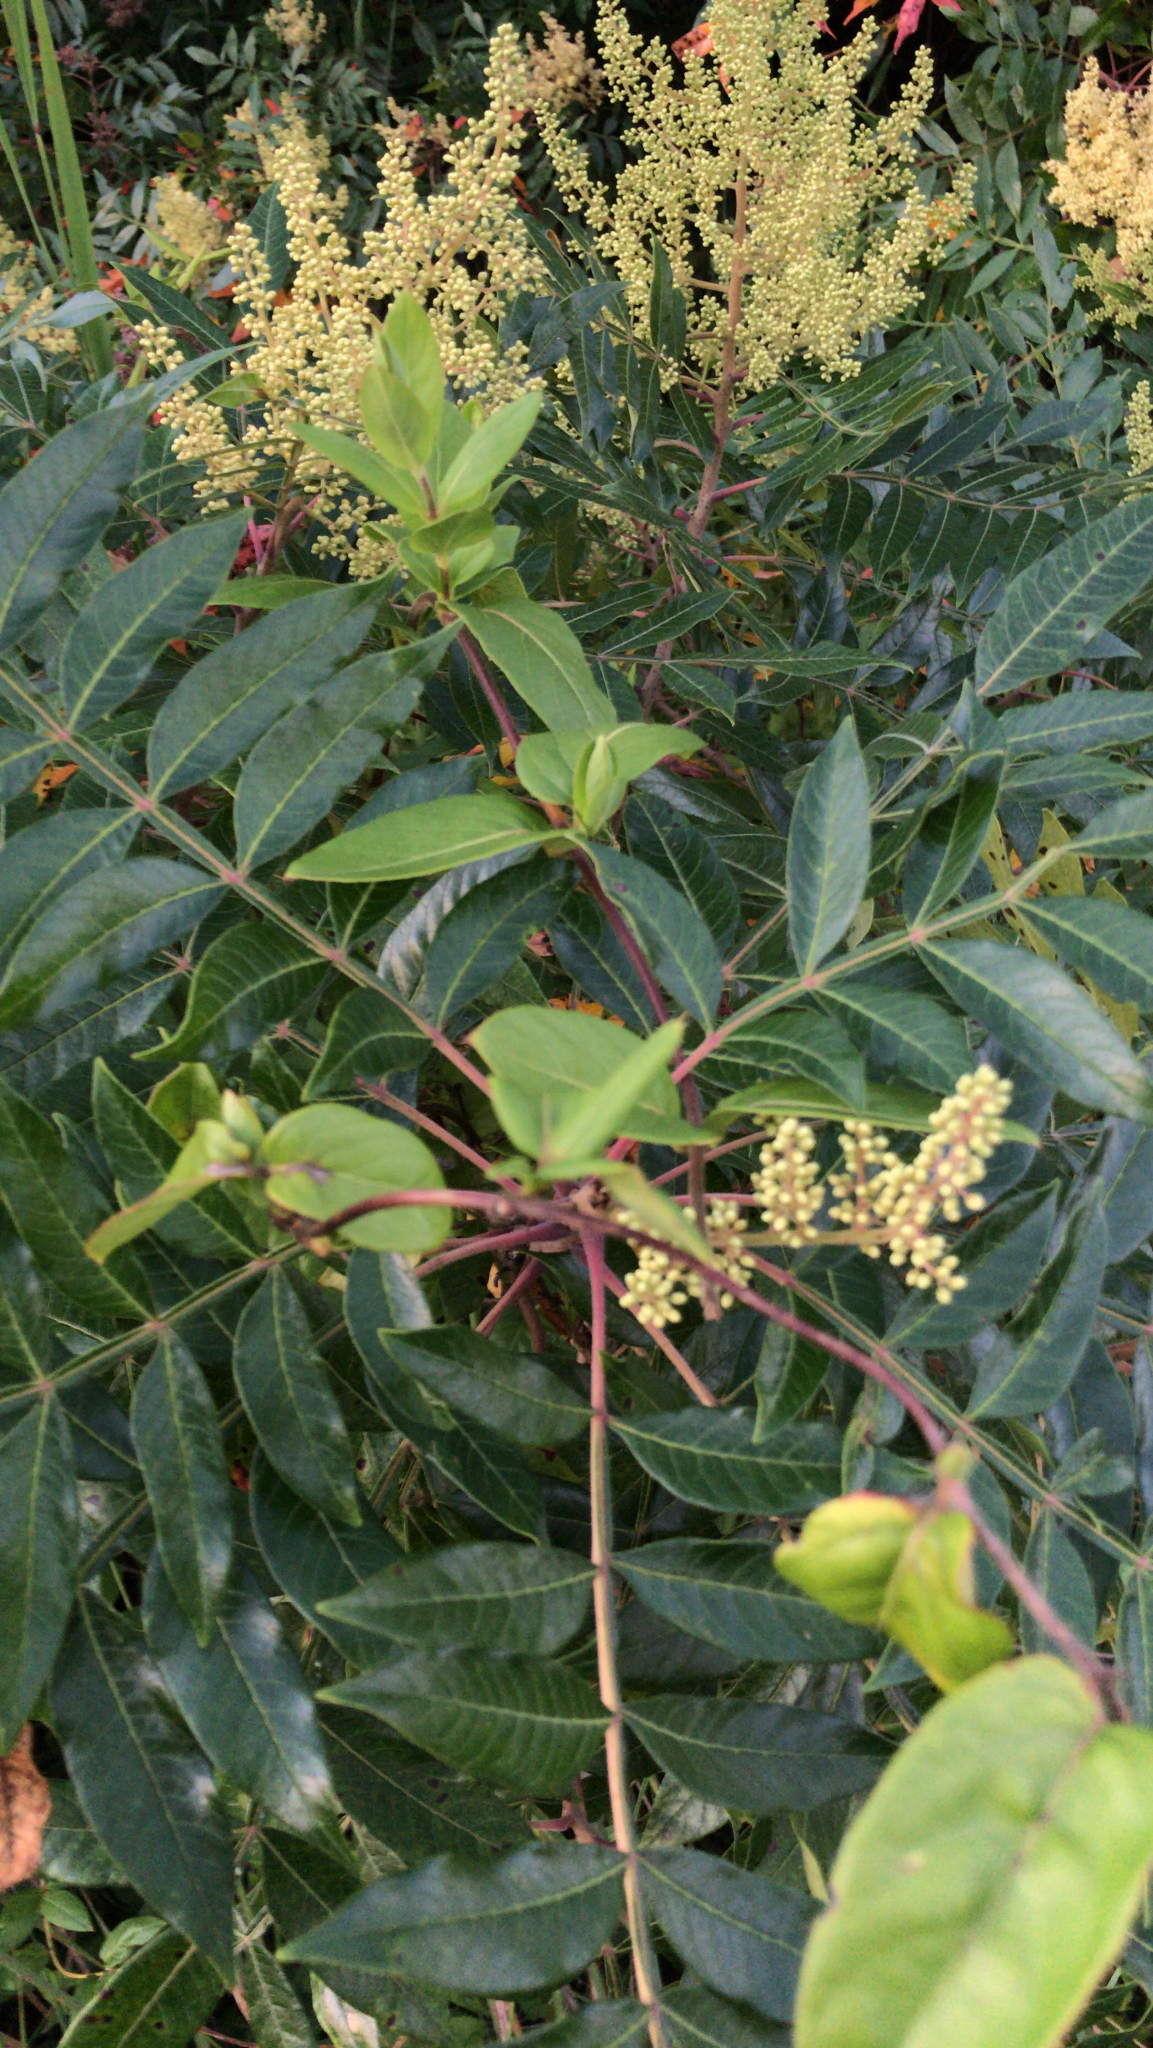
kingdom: Plantae
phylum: Tracheophyta
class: Magnoliopsida
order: Sapindales
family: Anacardiaceae
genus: Rhus
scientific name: Rhus copallina
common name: Shining sumac
